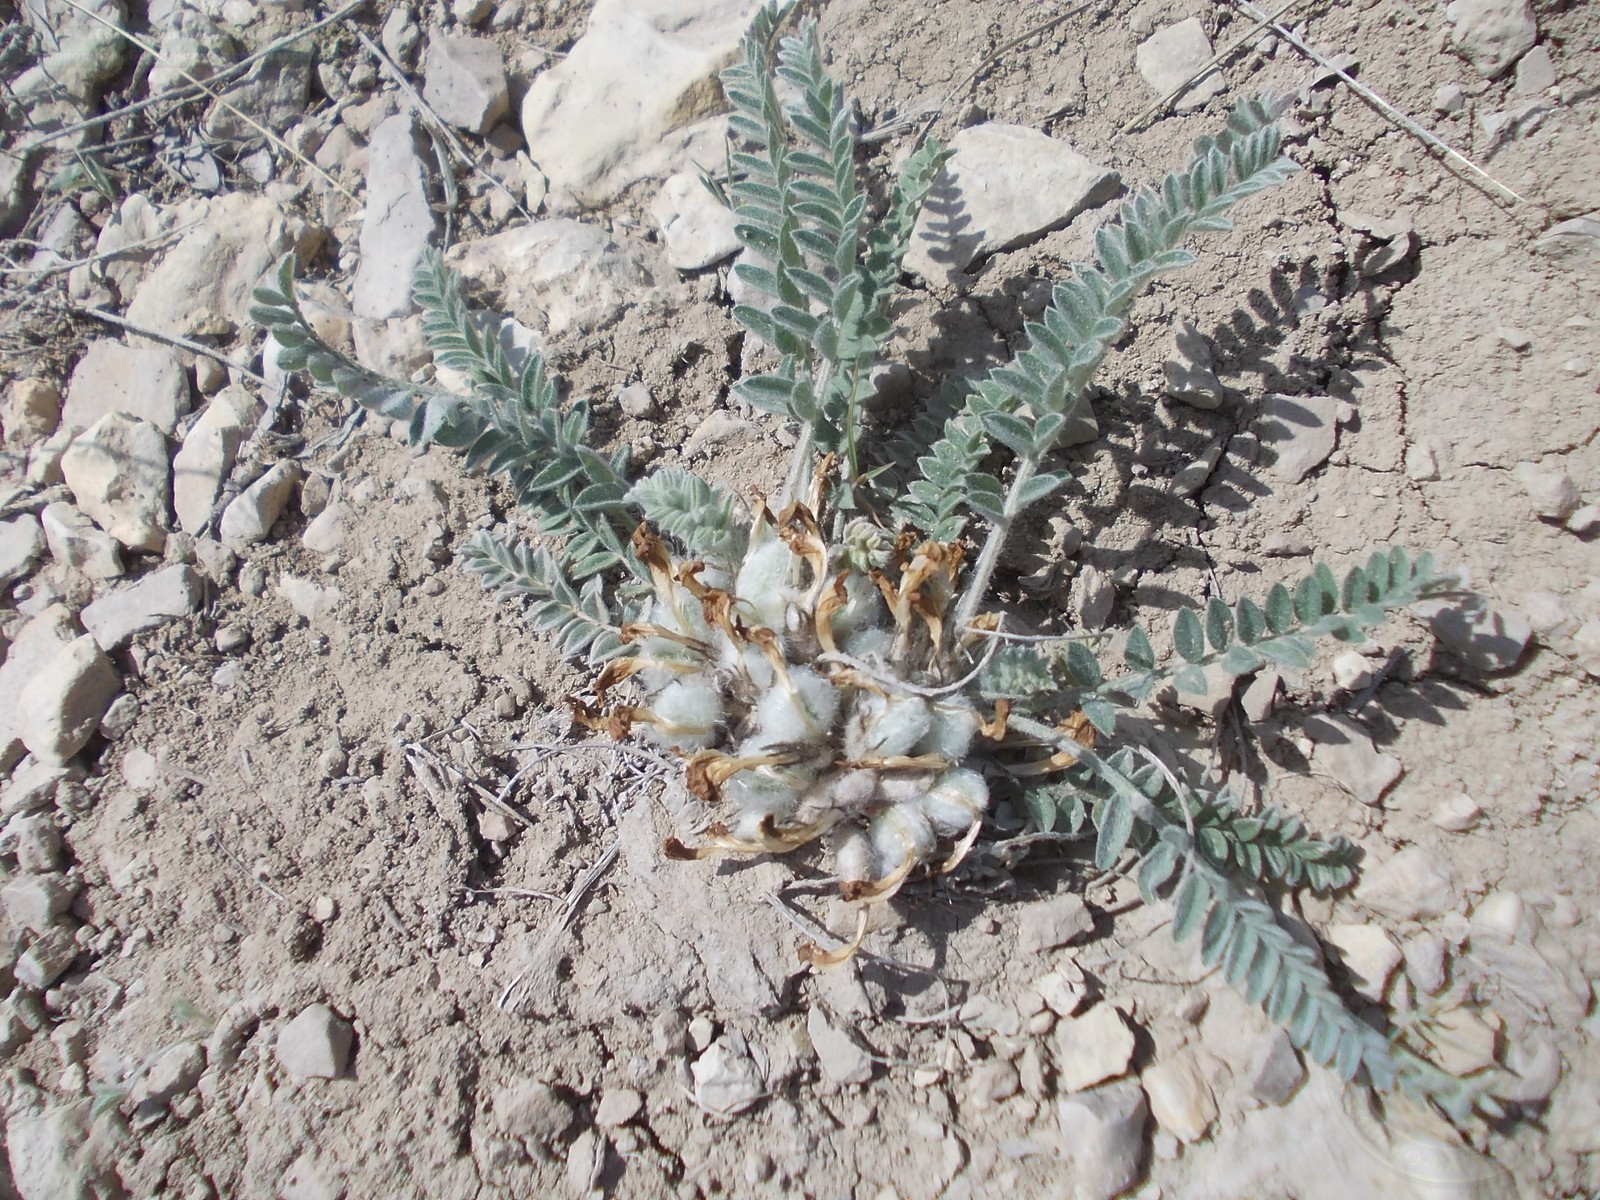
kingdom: Plantae
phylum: Tracheophyta
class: Magnoliopsida
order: Fabales
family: Fabaceae
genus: Astragalus
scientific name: Astragalus testiculatus
